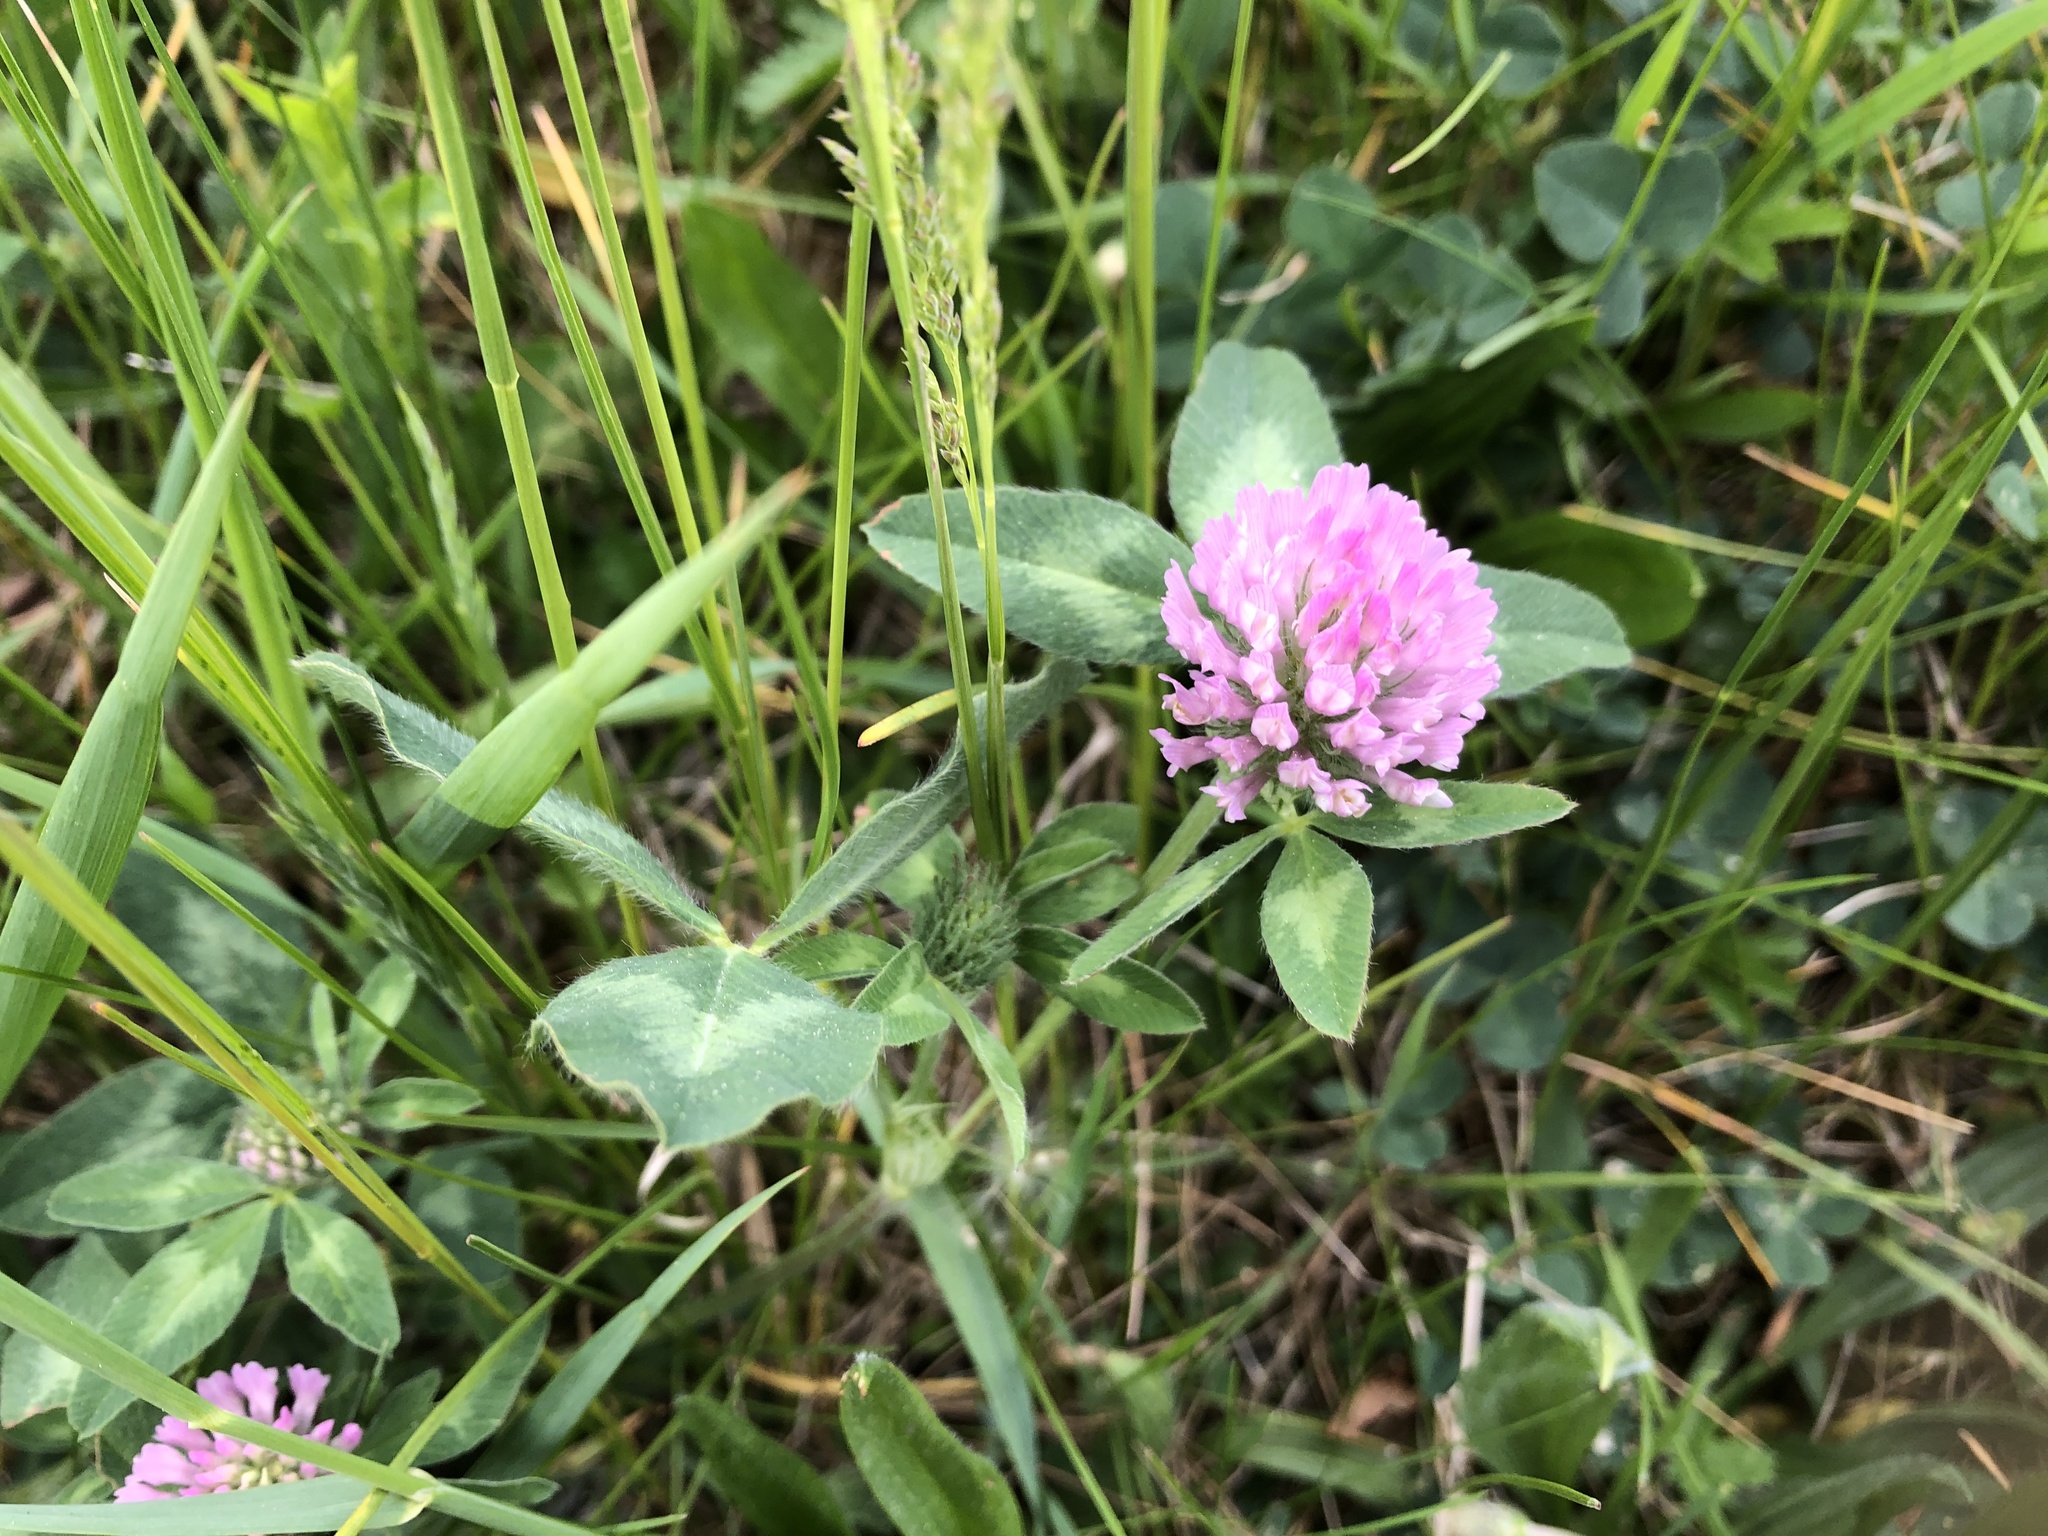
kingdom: Plantae
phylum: Tracheophyta
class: Magnoliopsida
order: Fabales
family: Fabaceae
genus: Trifolium
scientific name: Trifolium pratense
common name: Red clover
